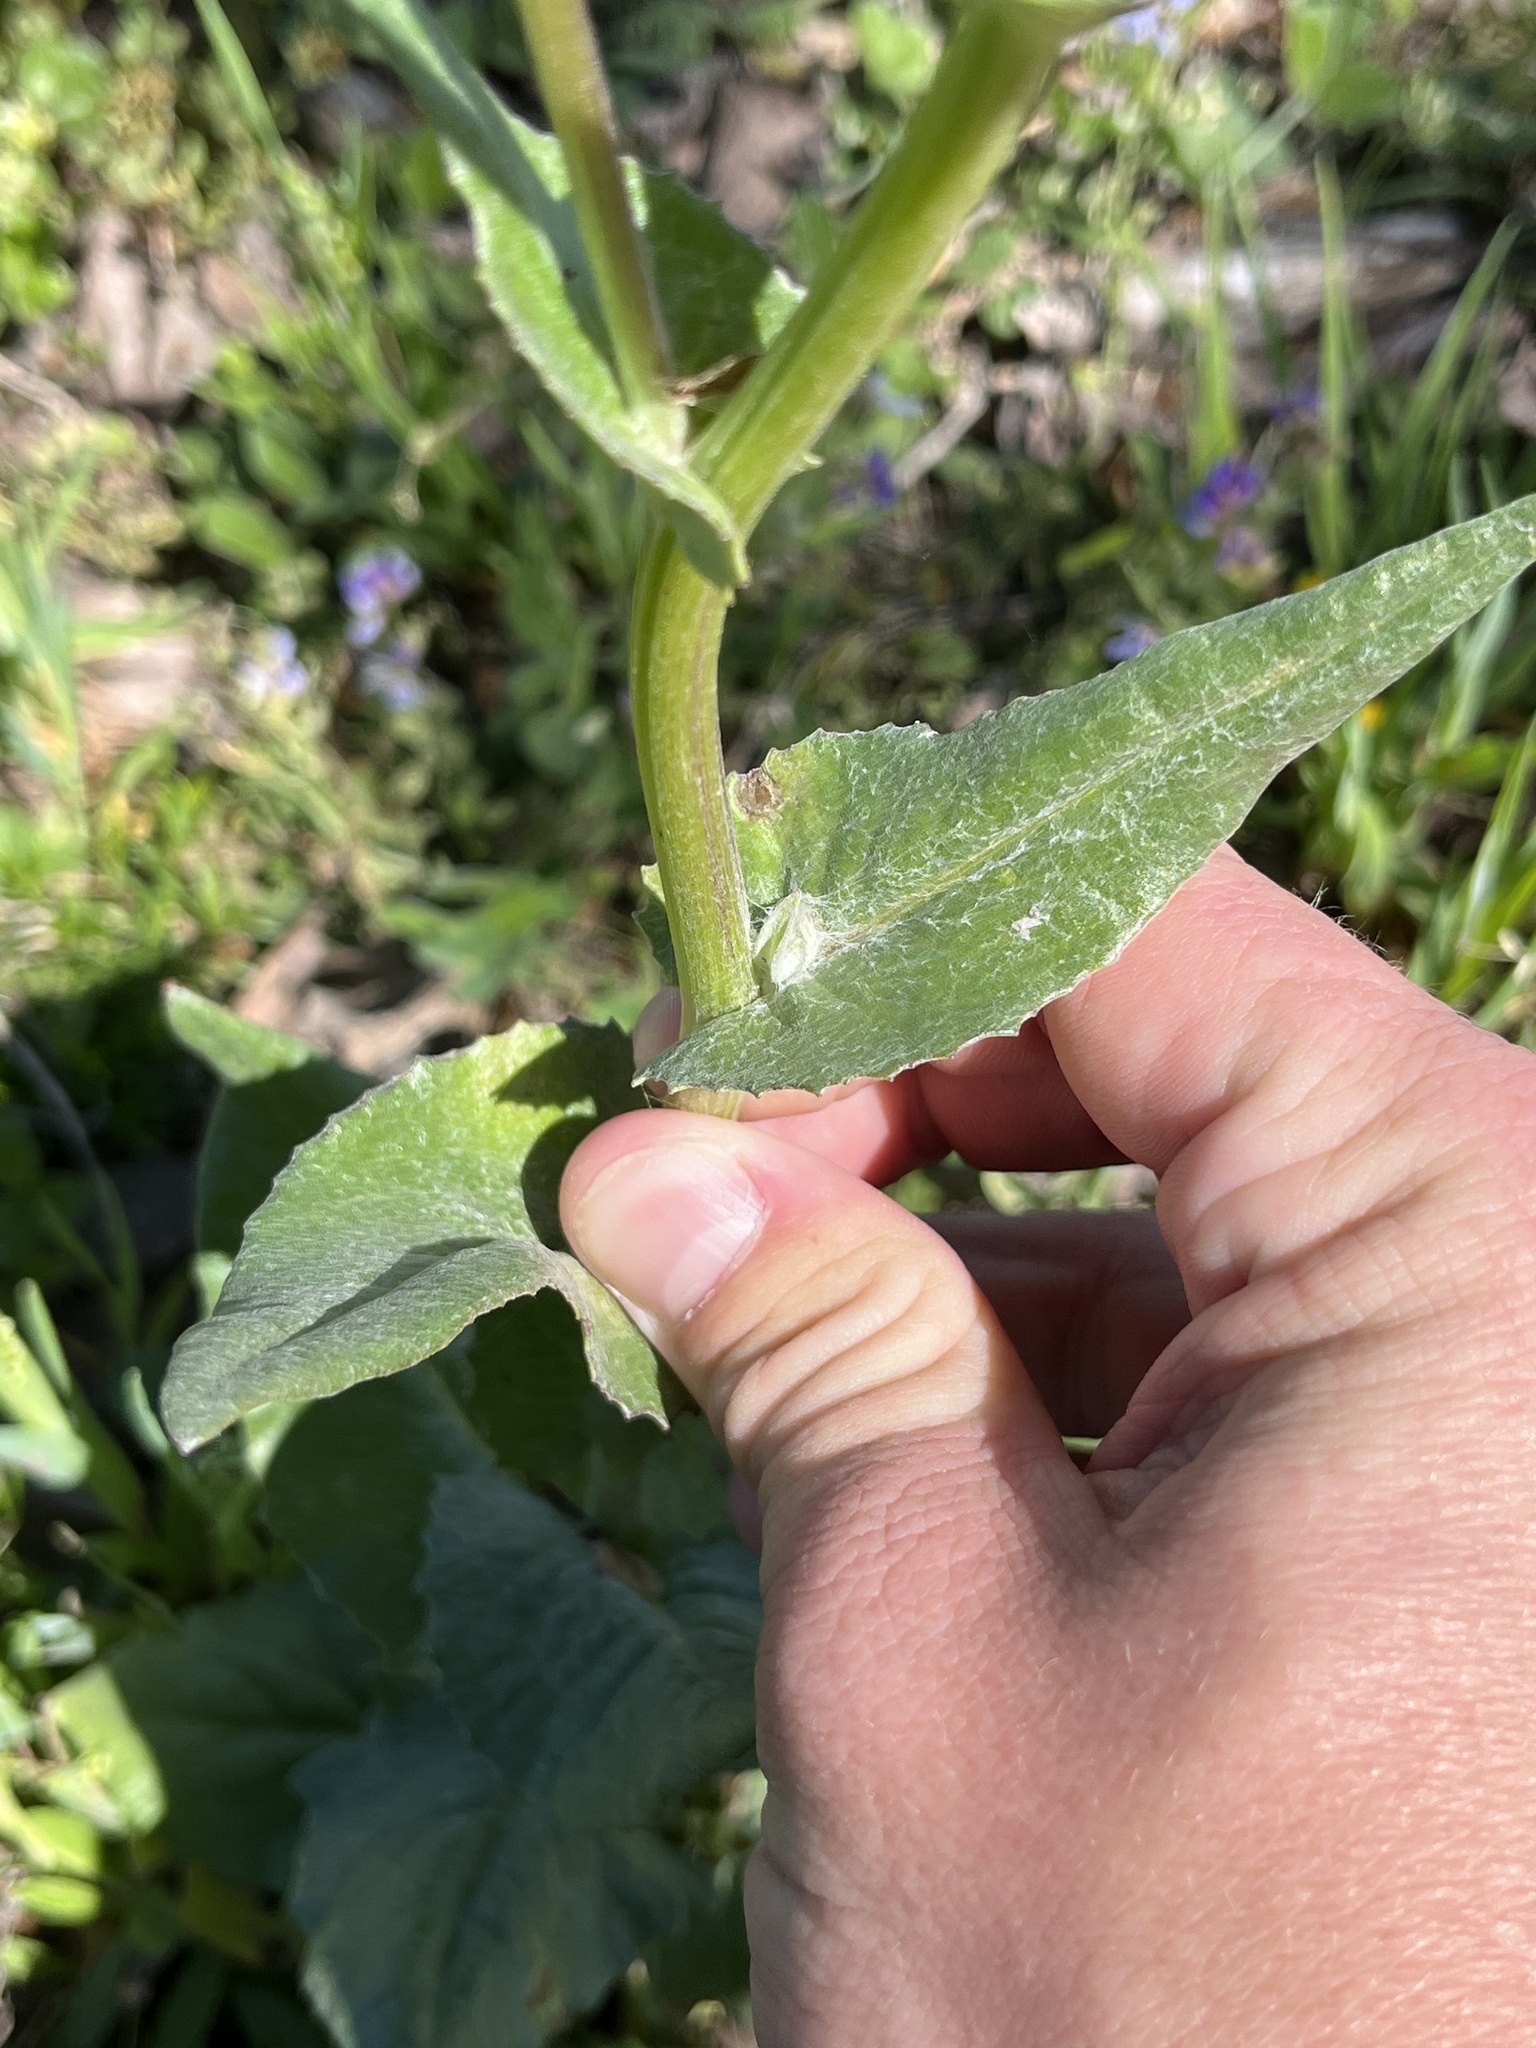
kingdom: Plantae
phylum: Tracheophyta
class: Magnoliopsida
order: Asterales
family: Asteraceae
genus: Senecio
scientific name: Senecio ampullaceus
